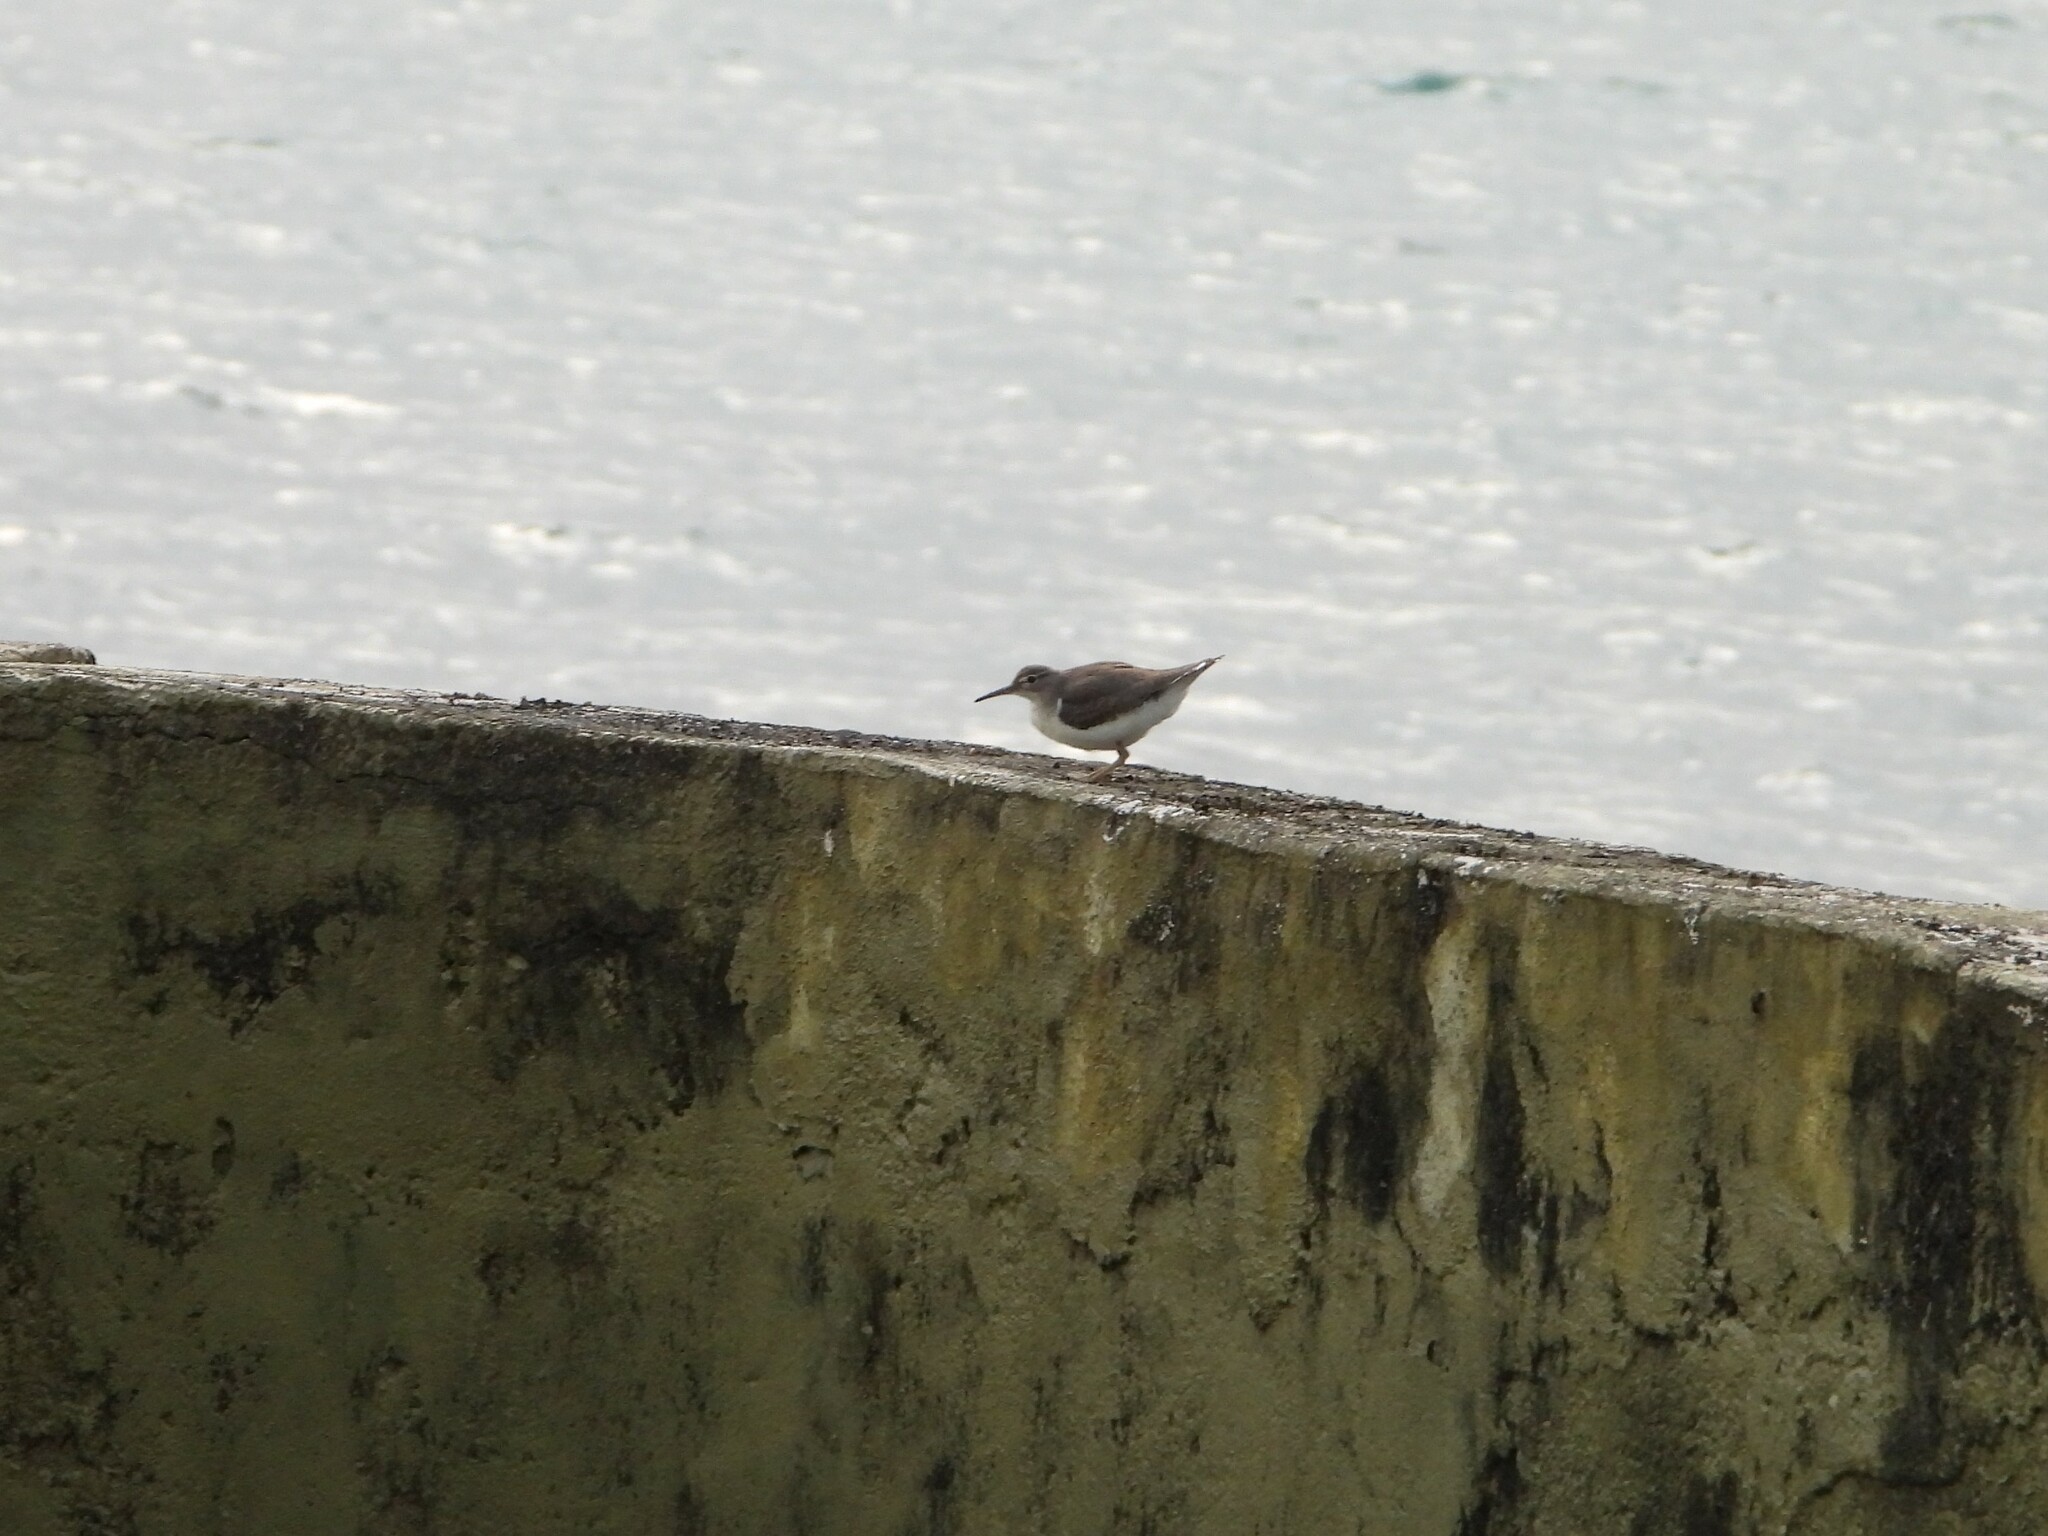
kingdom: Animalia
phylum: Chordata
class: Aves
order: Charadriiformes
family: Scolopacidae
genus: Actitis
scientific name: Actitis macularius
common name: Spotted sandpiper
